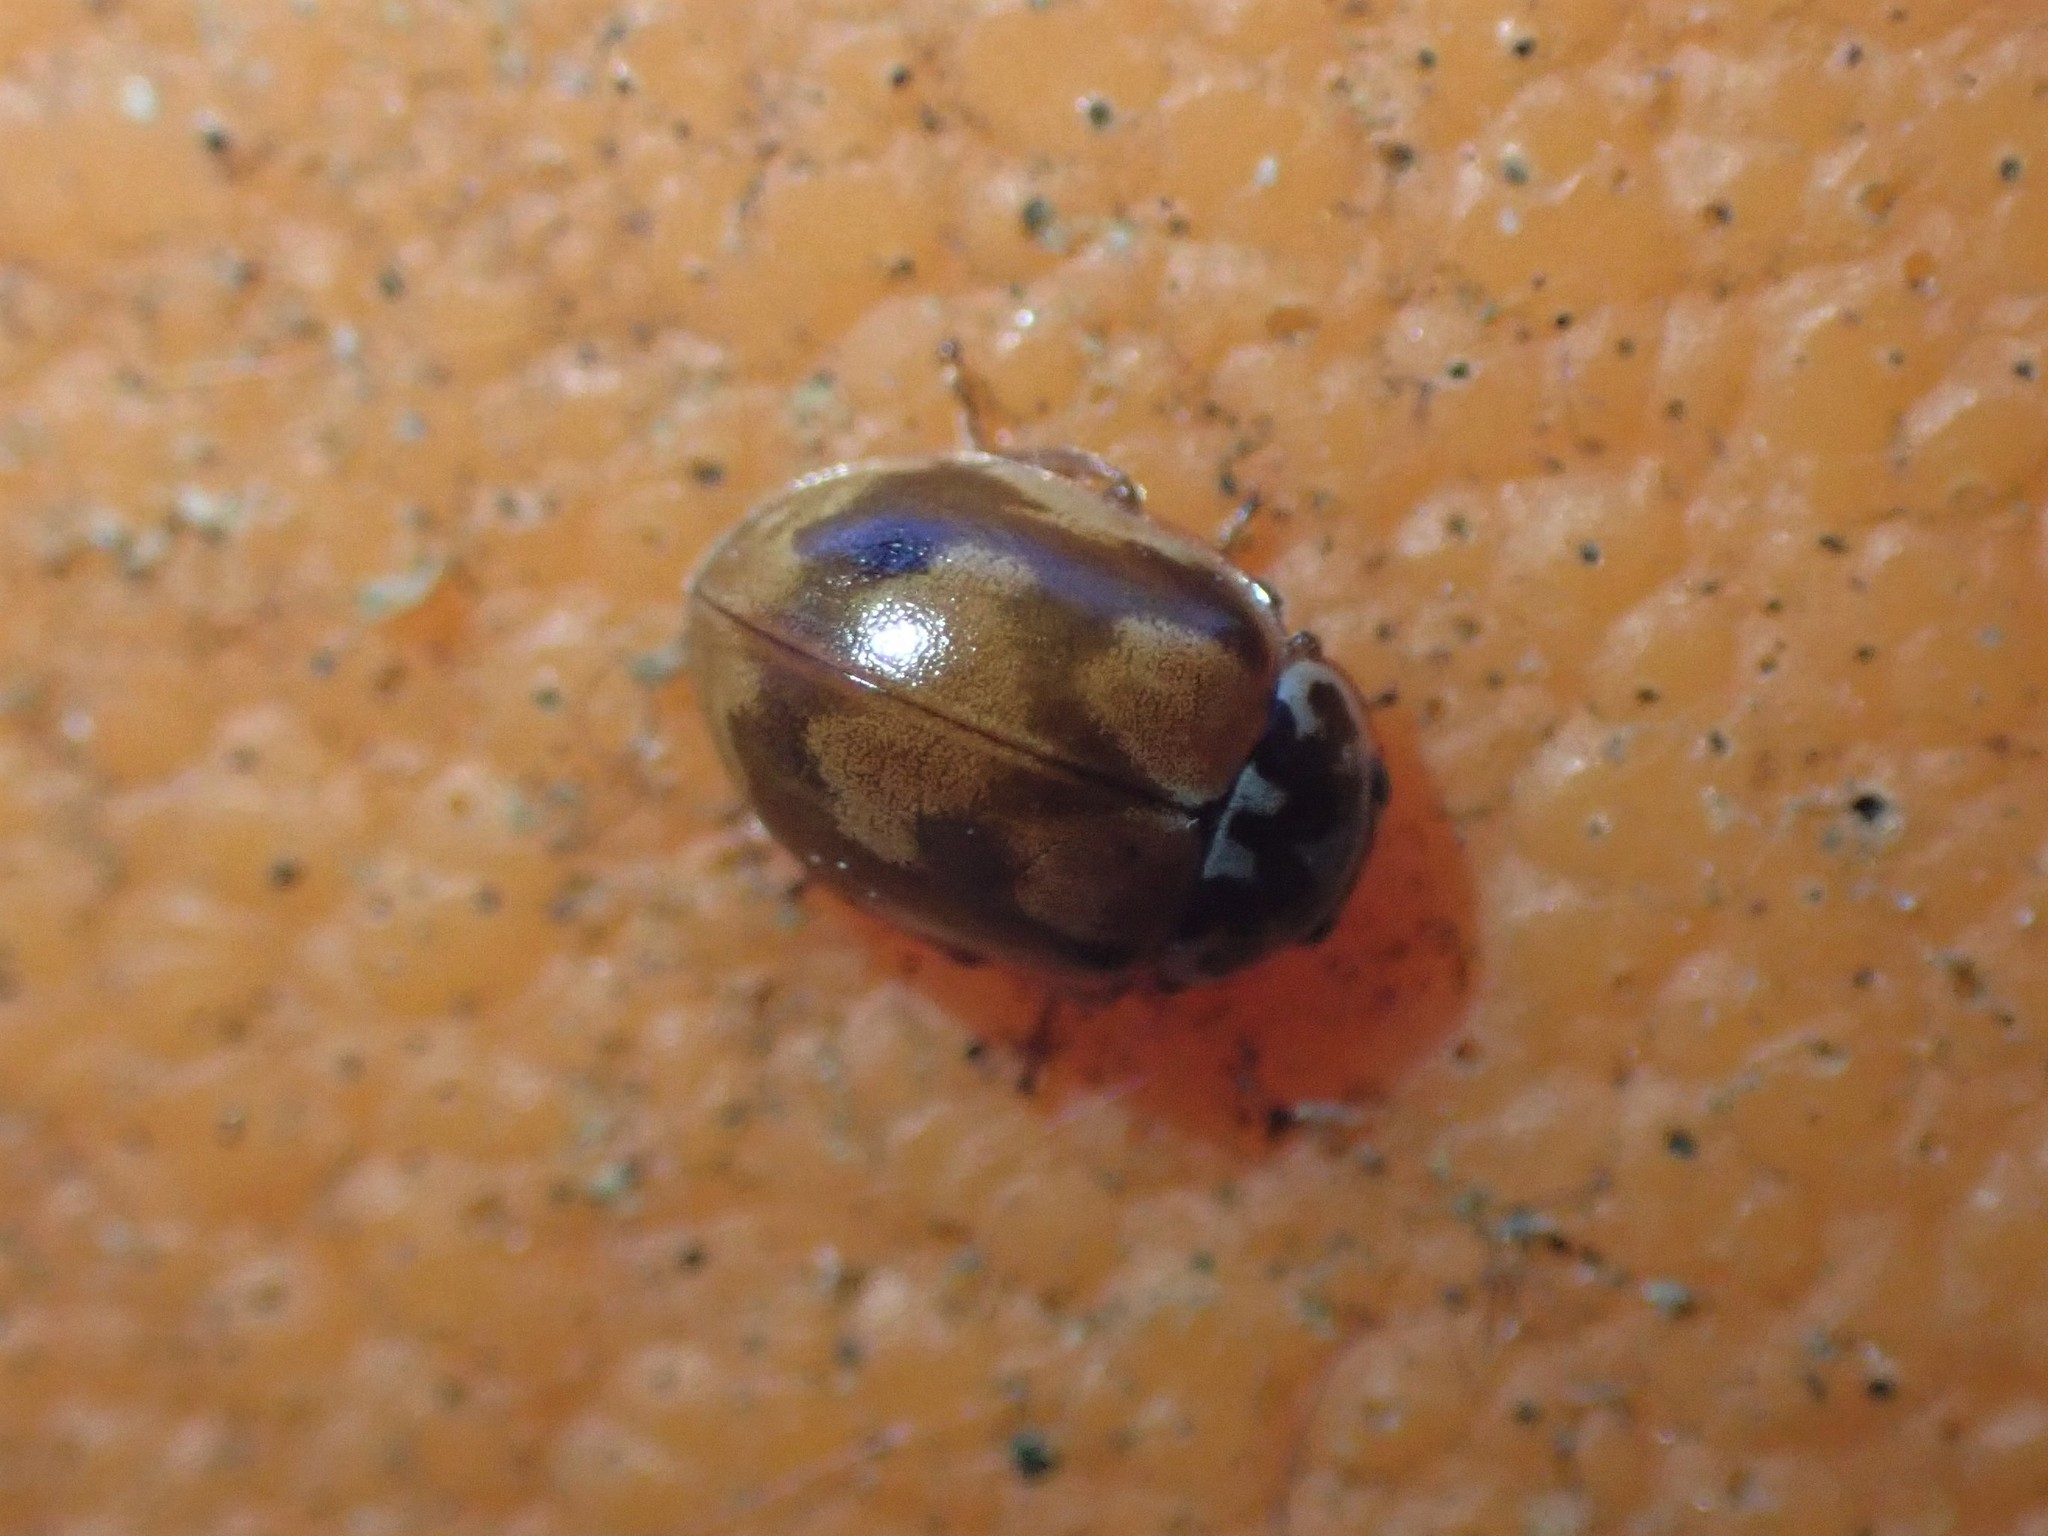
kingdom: Animalia
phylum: Arthropoda
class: Insecta
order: Coleoptera
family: Coccinellidae
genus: Mulsantina
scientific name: Mulsantina picta
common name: Painted ladybird
